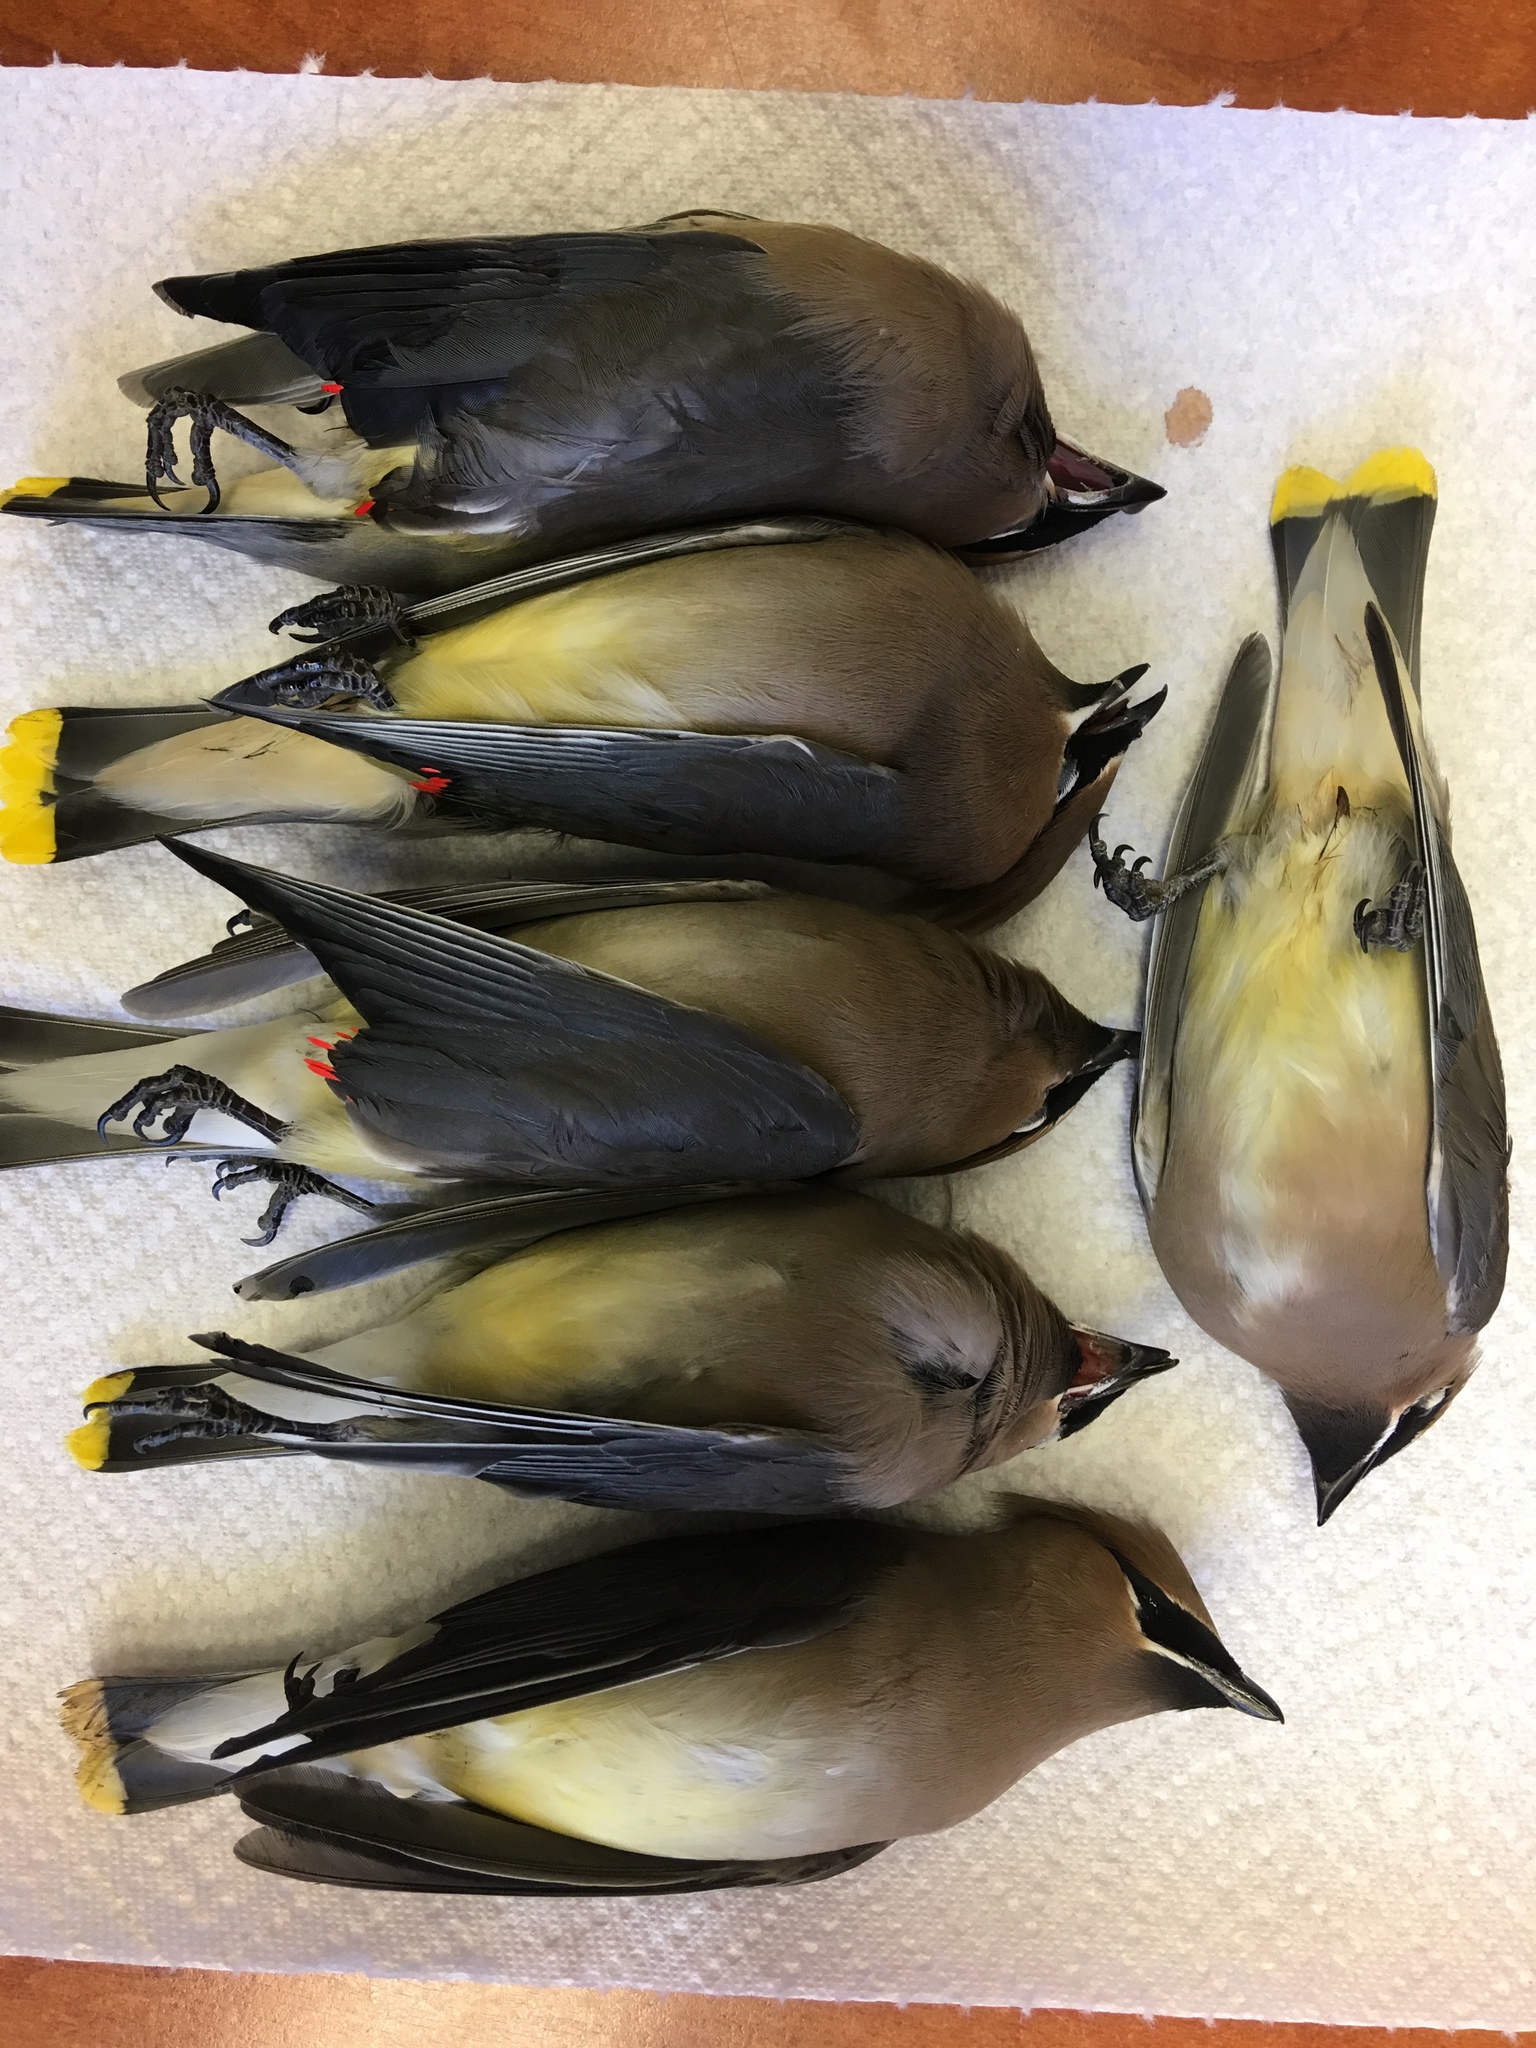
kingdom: Animalia
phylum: Chordata
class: Aves
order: Passeriformes
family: Bombycillidae
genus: Bombycilla
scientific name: Bombycilla cedrorum
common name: Cedar waxwing
